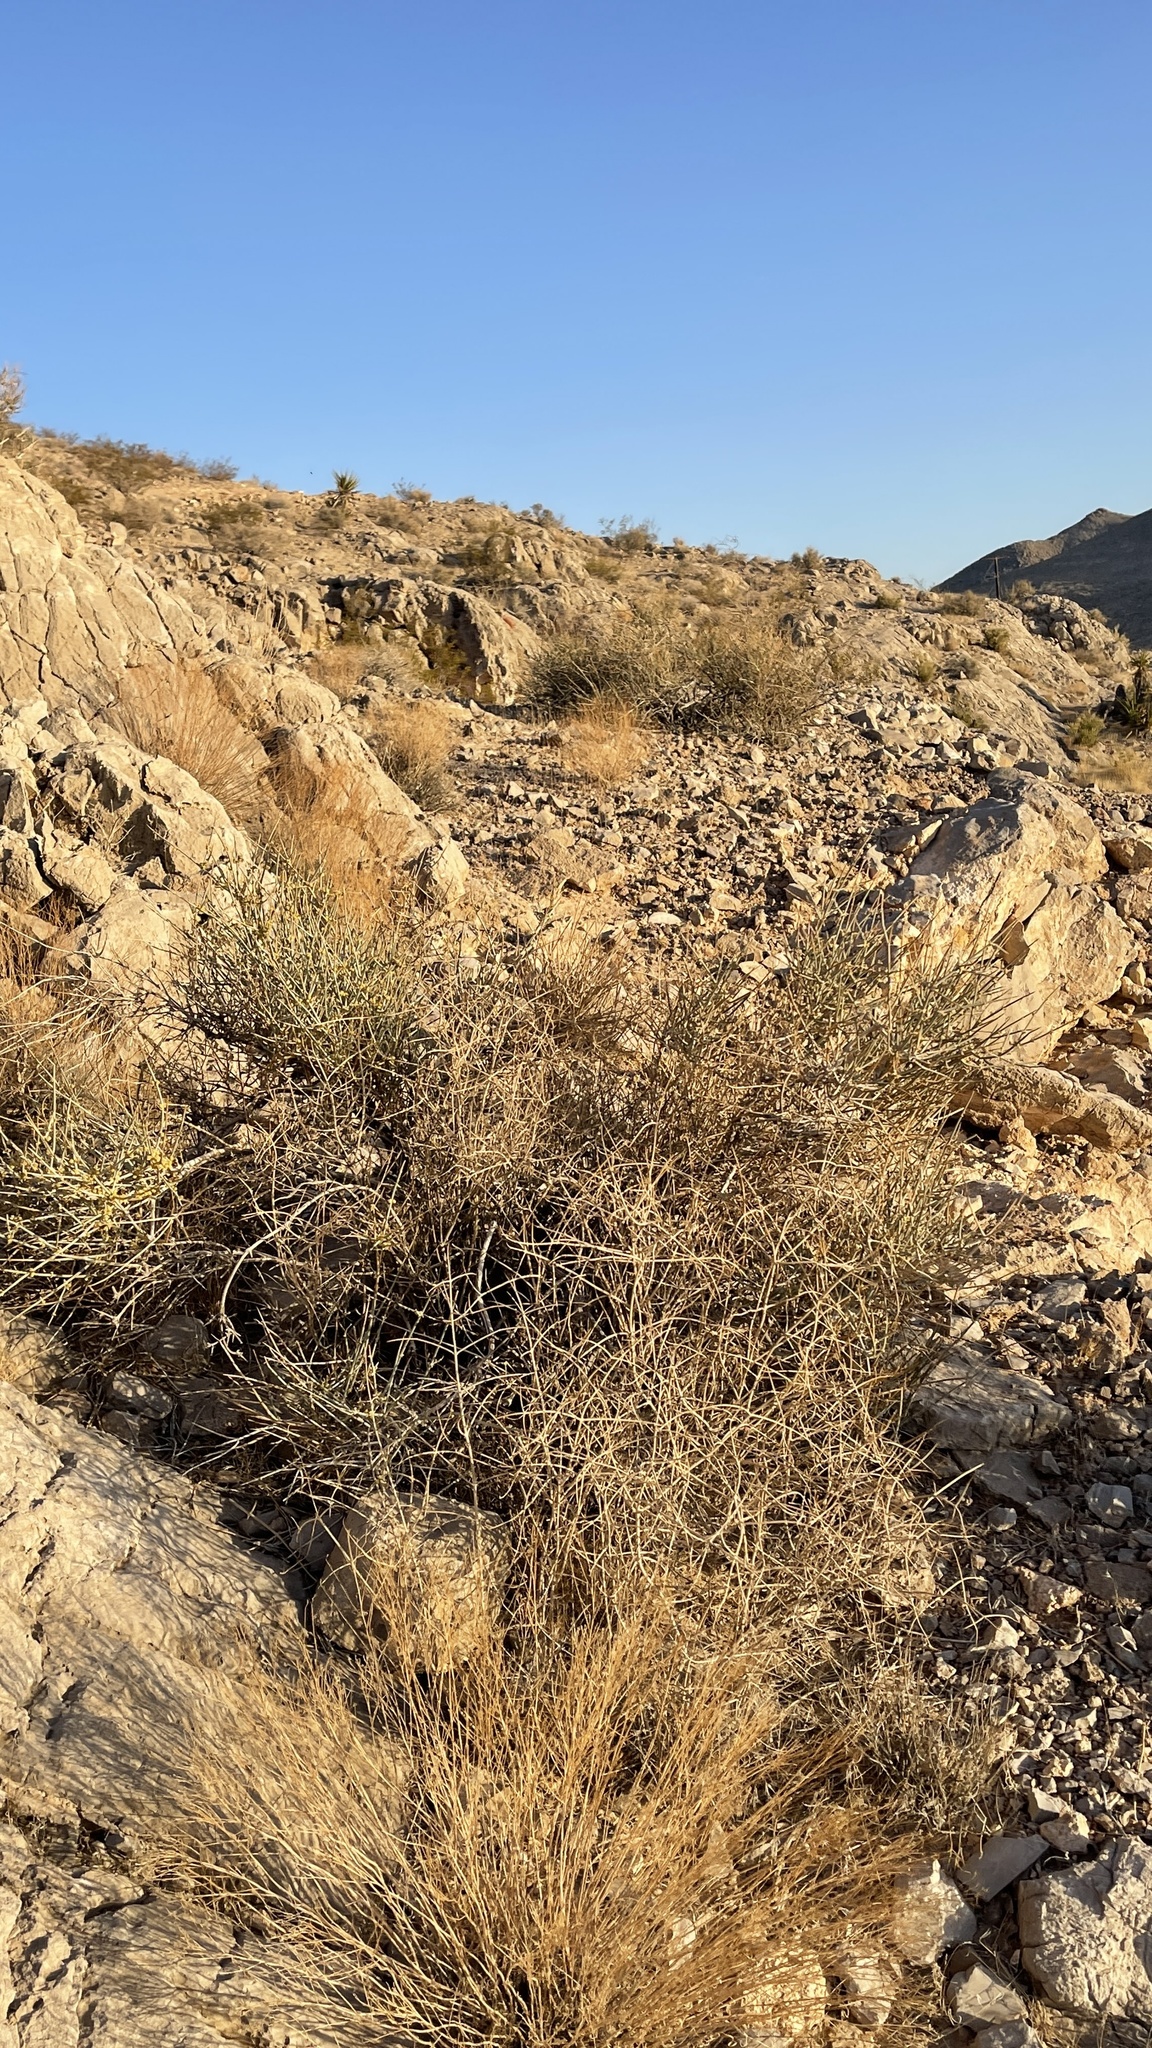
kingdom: Plantae
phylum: Tracheophyta
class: Gnetopsida
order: Ephedrales
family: Ephedraceae
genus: Ephedra
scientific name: Ephedra nevadensis
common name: Gray ephedra
